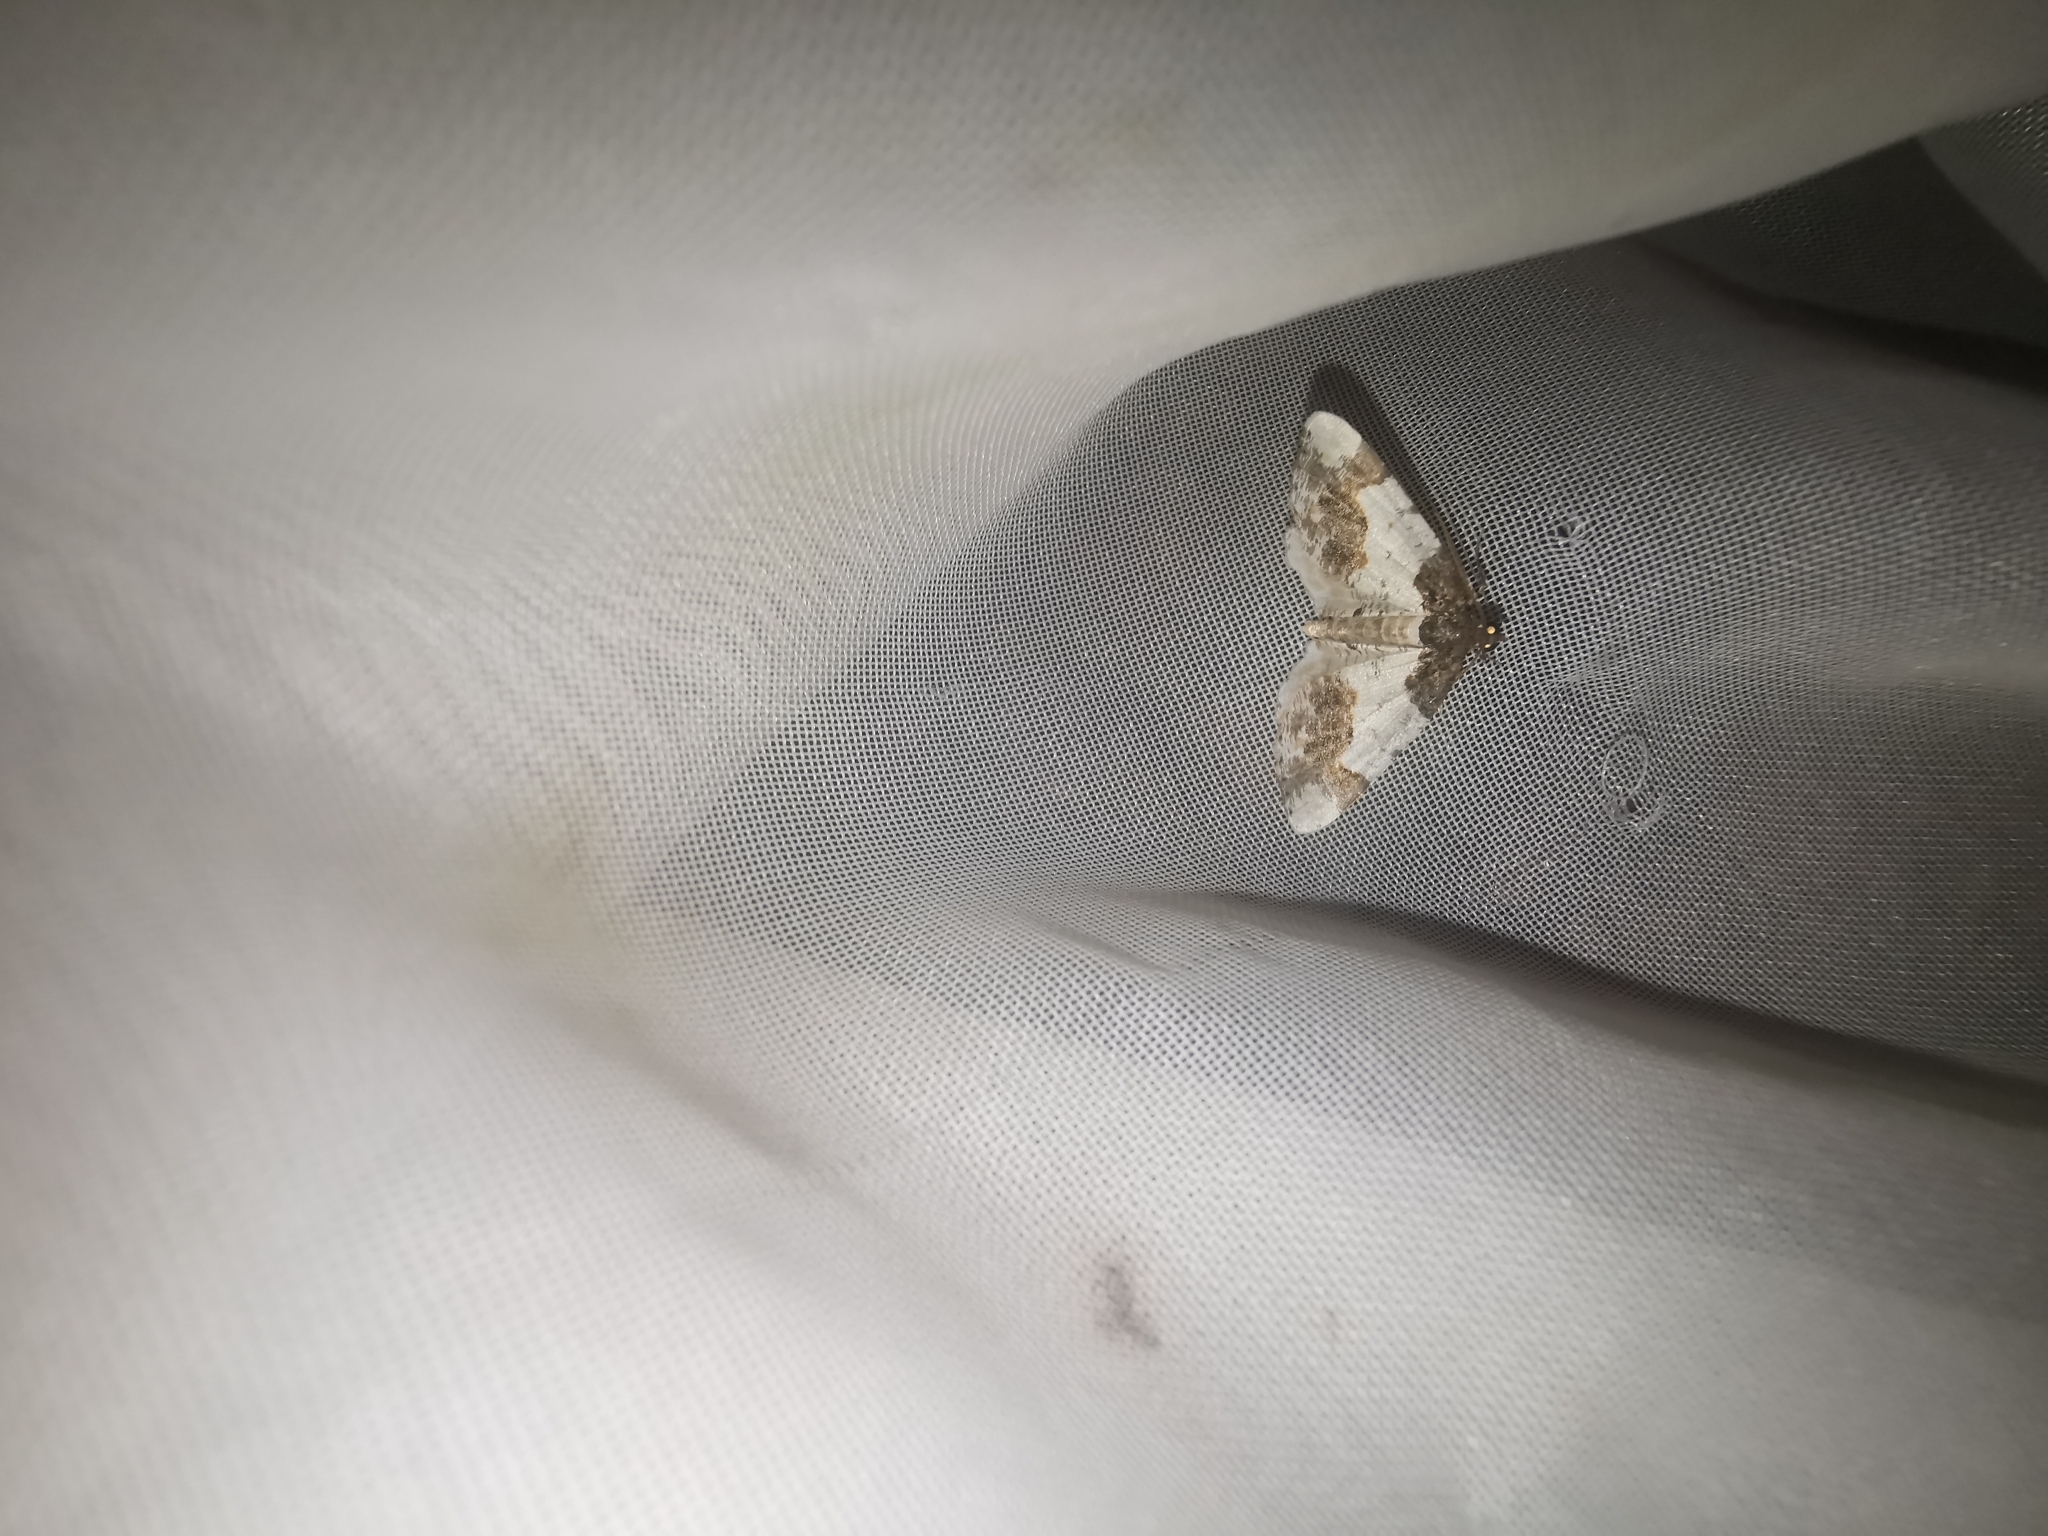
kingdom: Animalia
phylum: Arthropoda
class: Insecta
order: Lepidoptera
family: Geometridae
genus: Ligdia
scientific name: Ligdia adustata
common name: Scorched carpet
